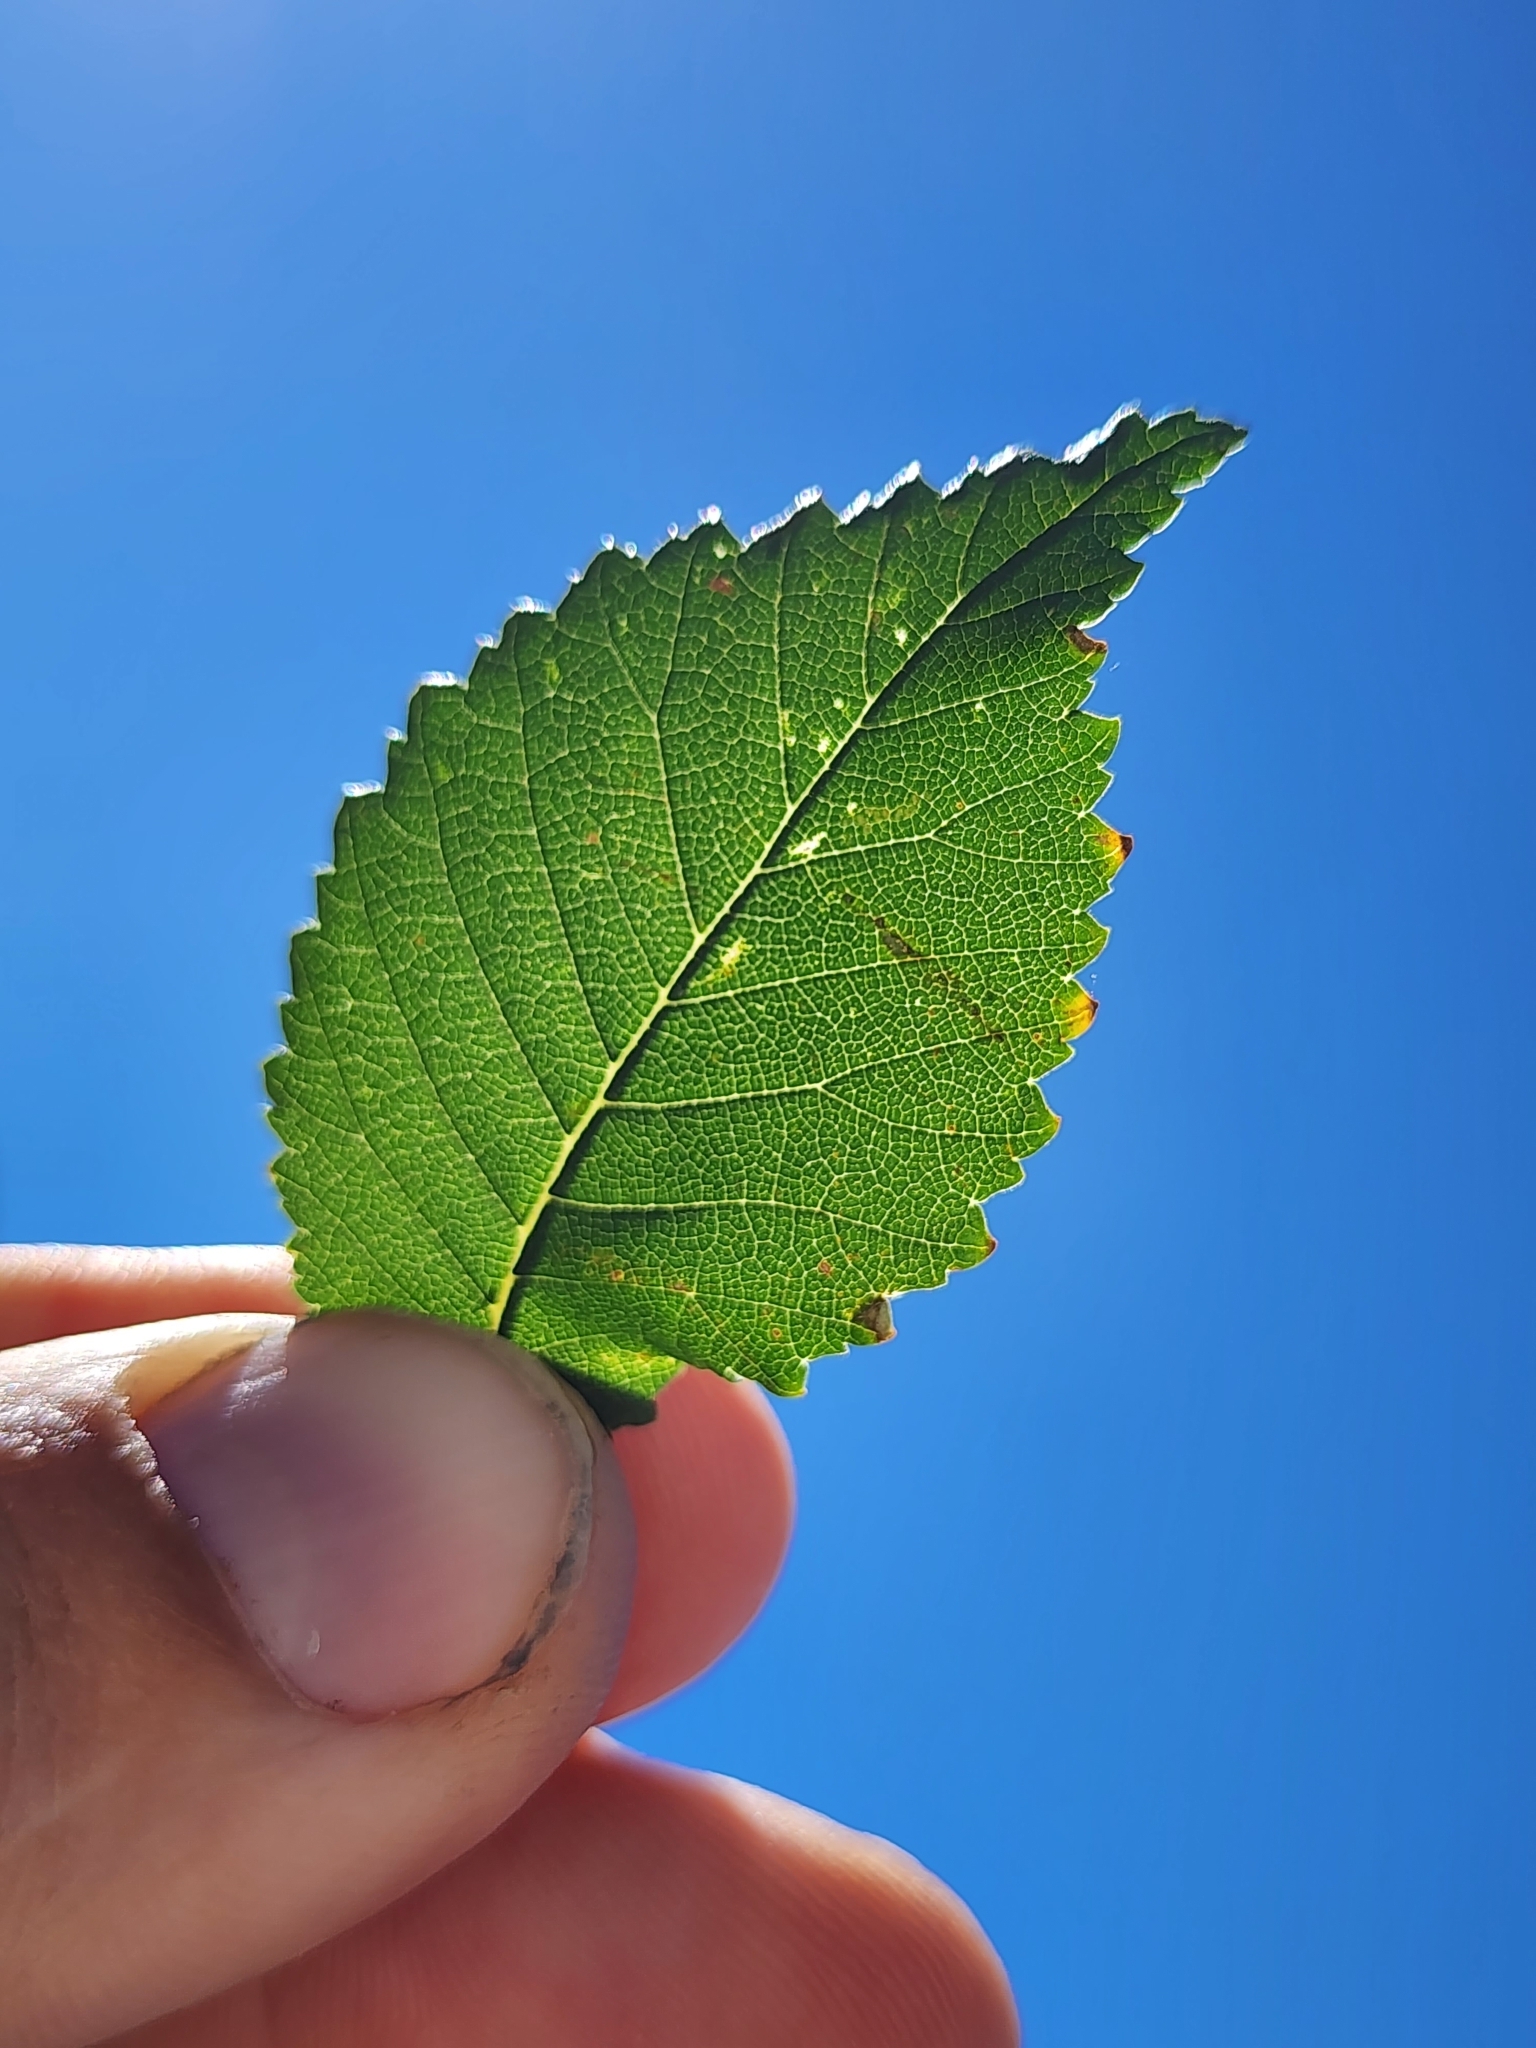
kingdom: Plantae
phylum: Tracheophyta
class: Magnoliopsida
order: Rosales
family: Ulmaceae
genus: Ulmus
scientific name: Ulmus pumila
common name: Siberian elm
